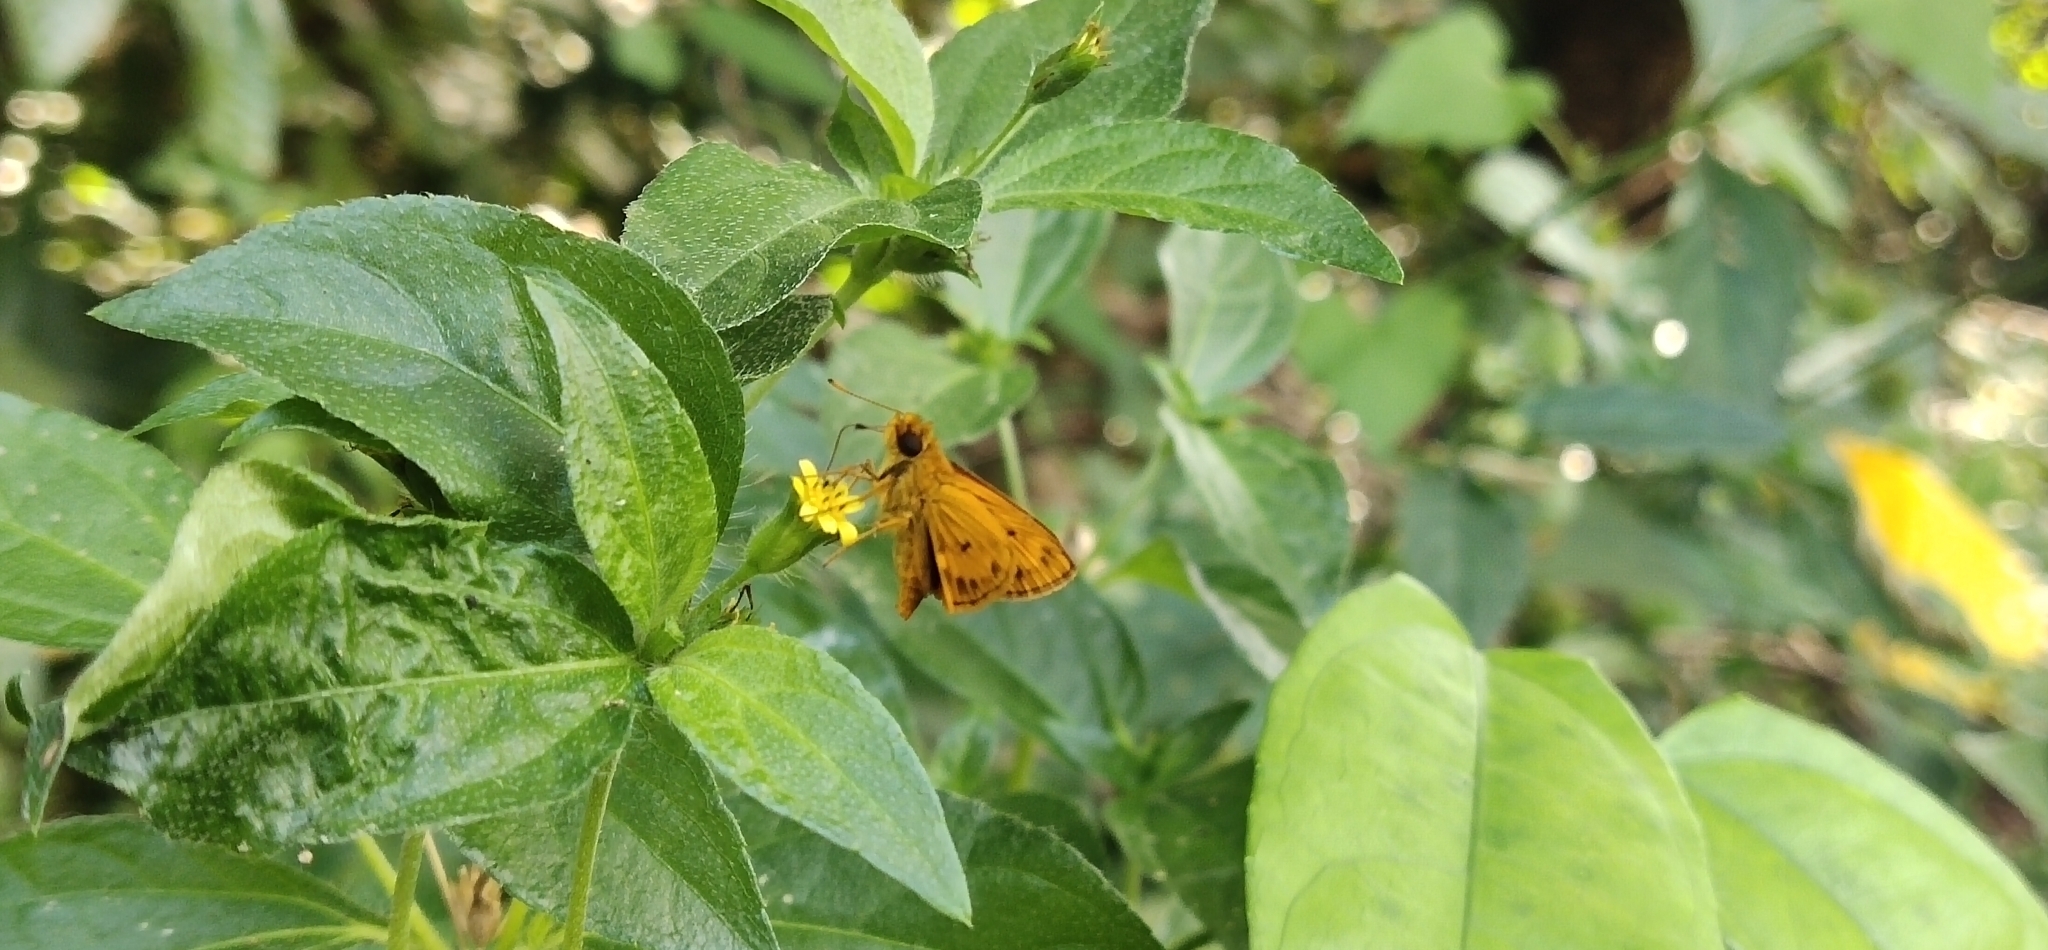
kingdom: Animalia
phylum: Arthropoda
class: Insecta
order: Lepidoptera
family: Hesperiidae
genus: Oriens
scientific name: Oriens gola
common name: Common dartlet
